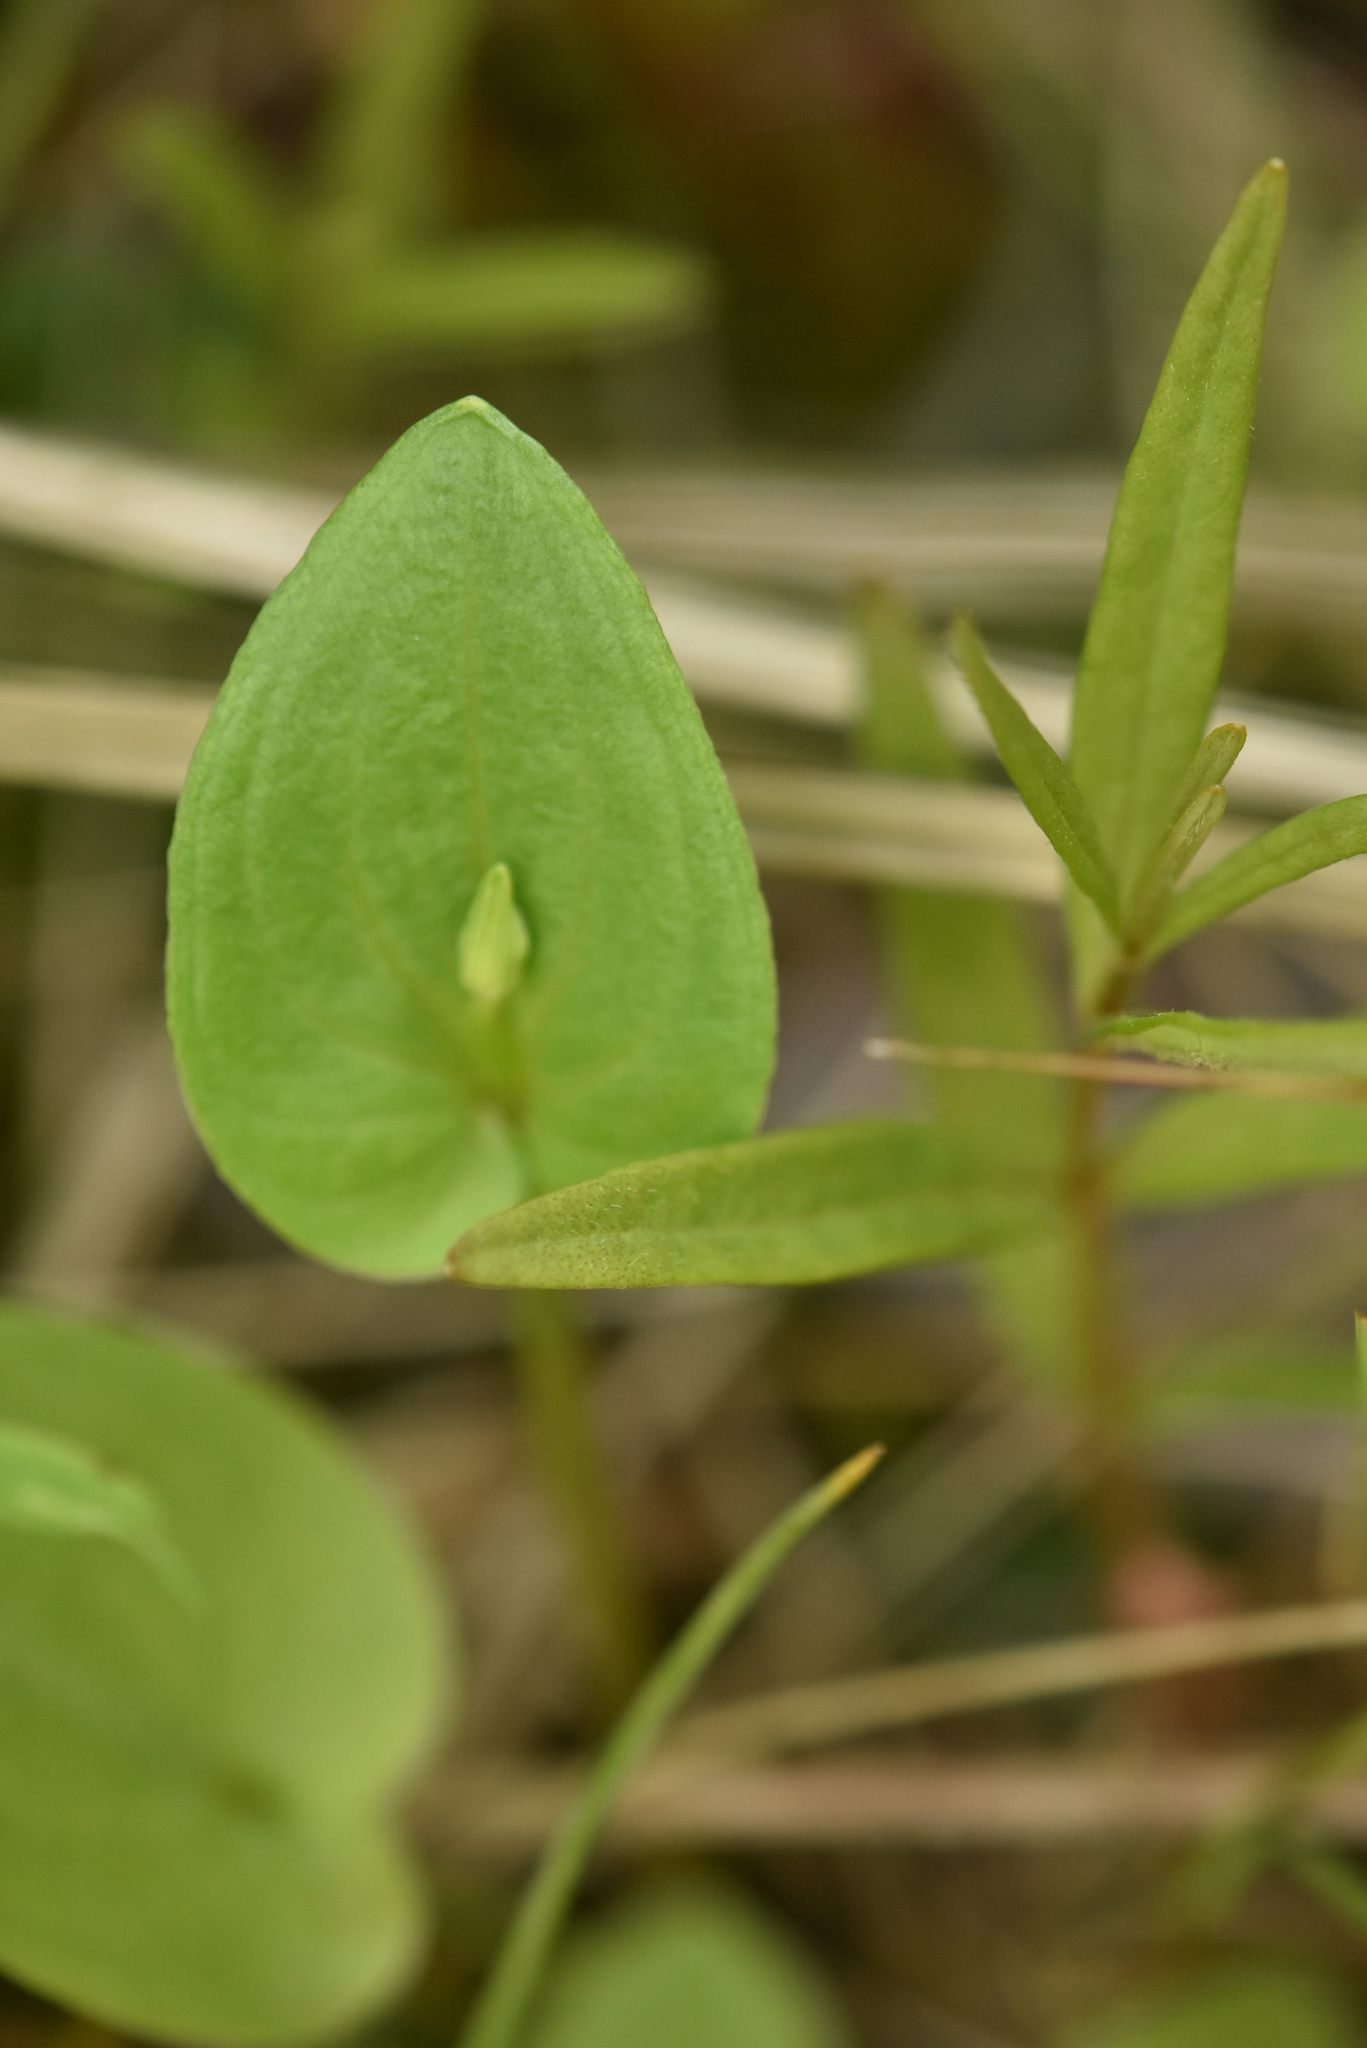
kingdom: Plantae
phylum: Tracheophyta
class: Magnoliopsida
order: Celastrales
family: Parnassiaceae
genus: Parnassia
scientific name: Parnassia palustris
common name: Grass-of-parnassus
